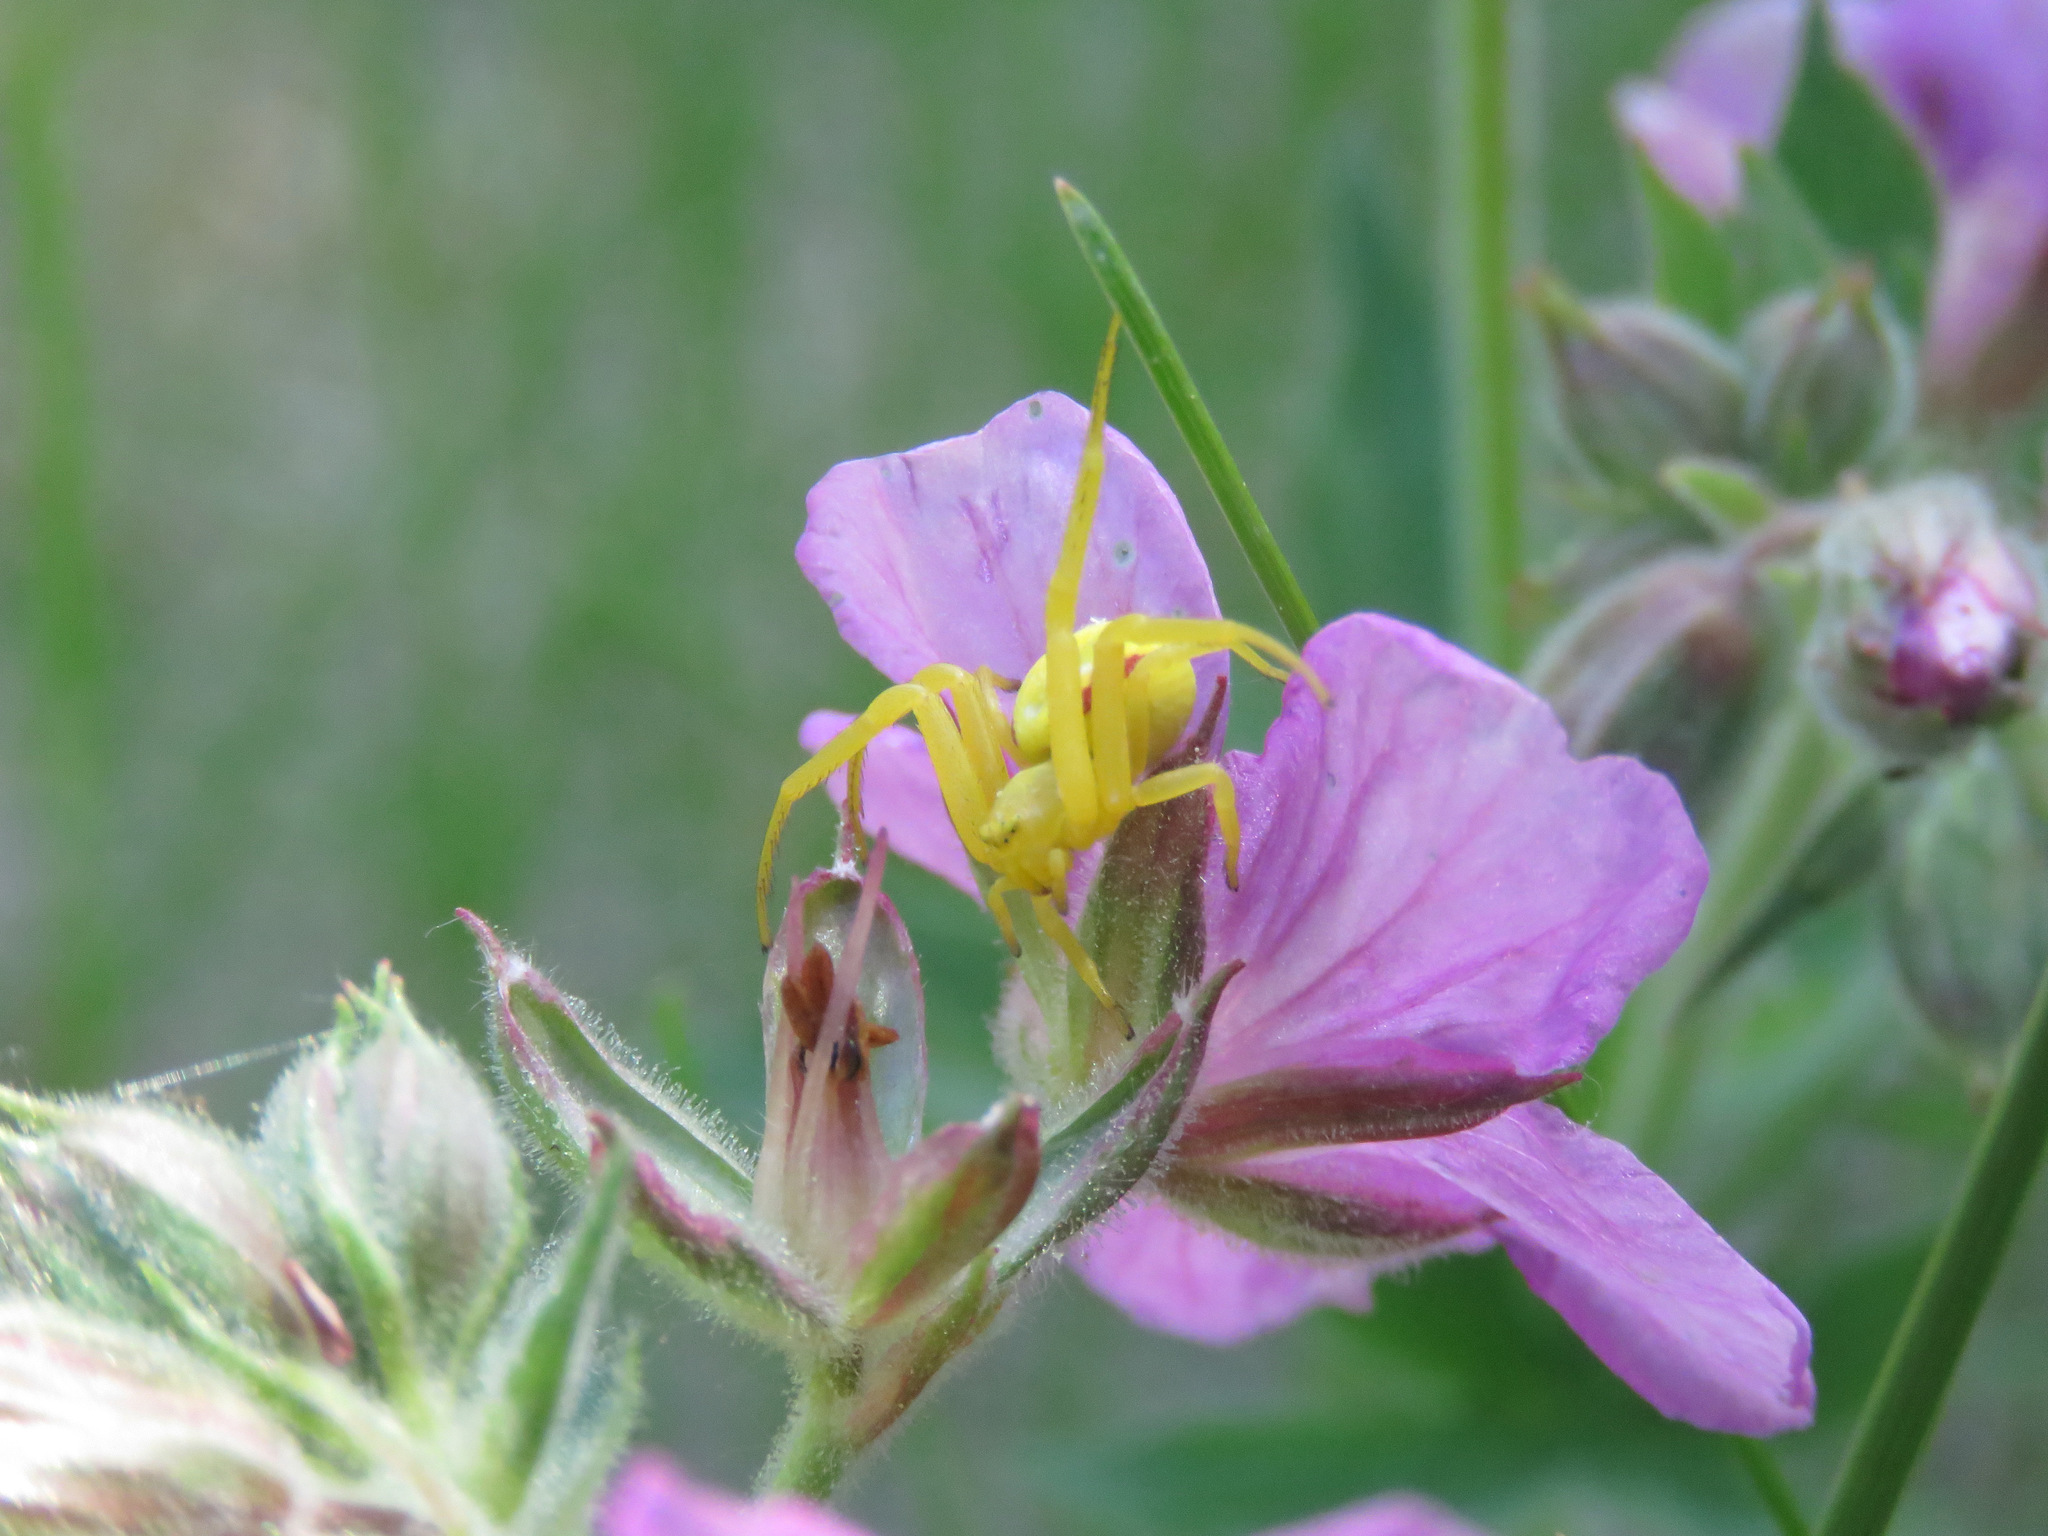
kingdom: Animalia
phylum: Arthropoda
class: Arachnida
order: Araneae
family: Thomisidae
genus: Misumena
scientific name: Misumena vatia
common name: Goldenrod crab spider
